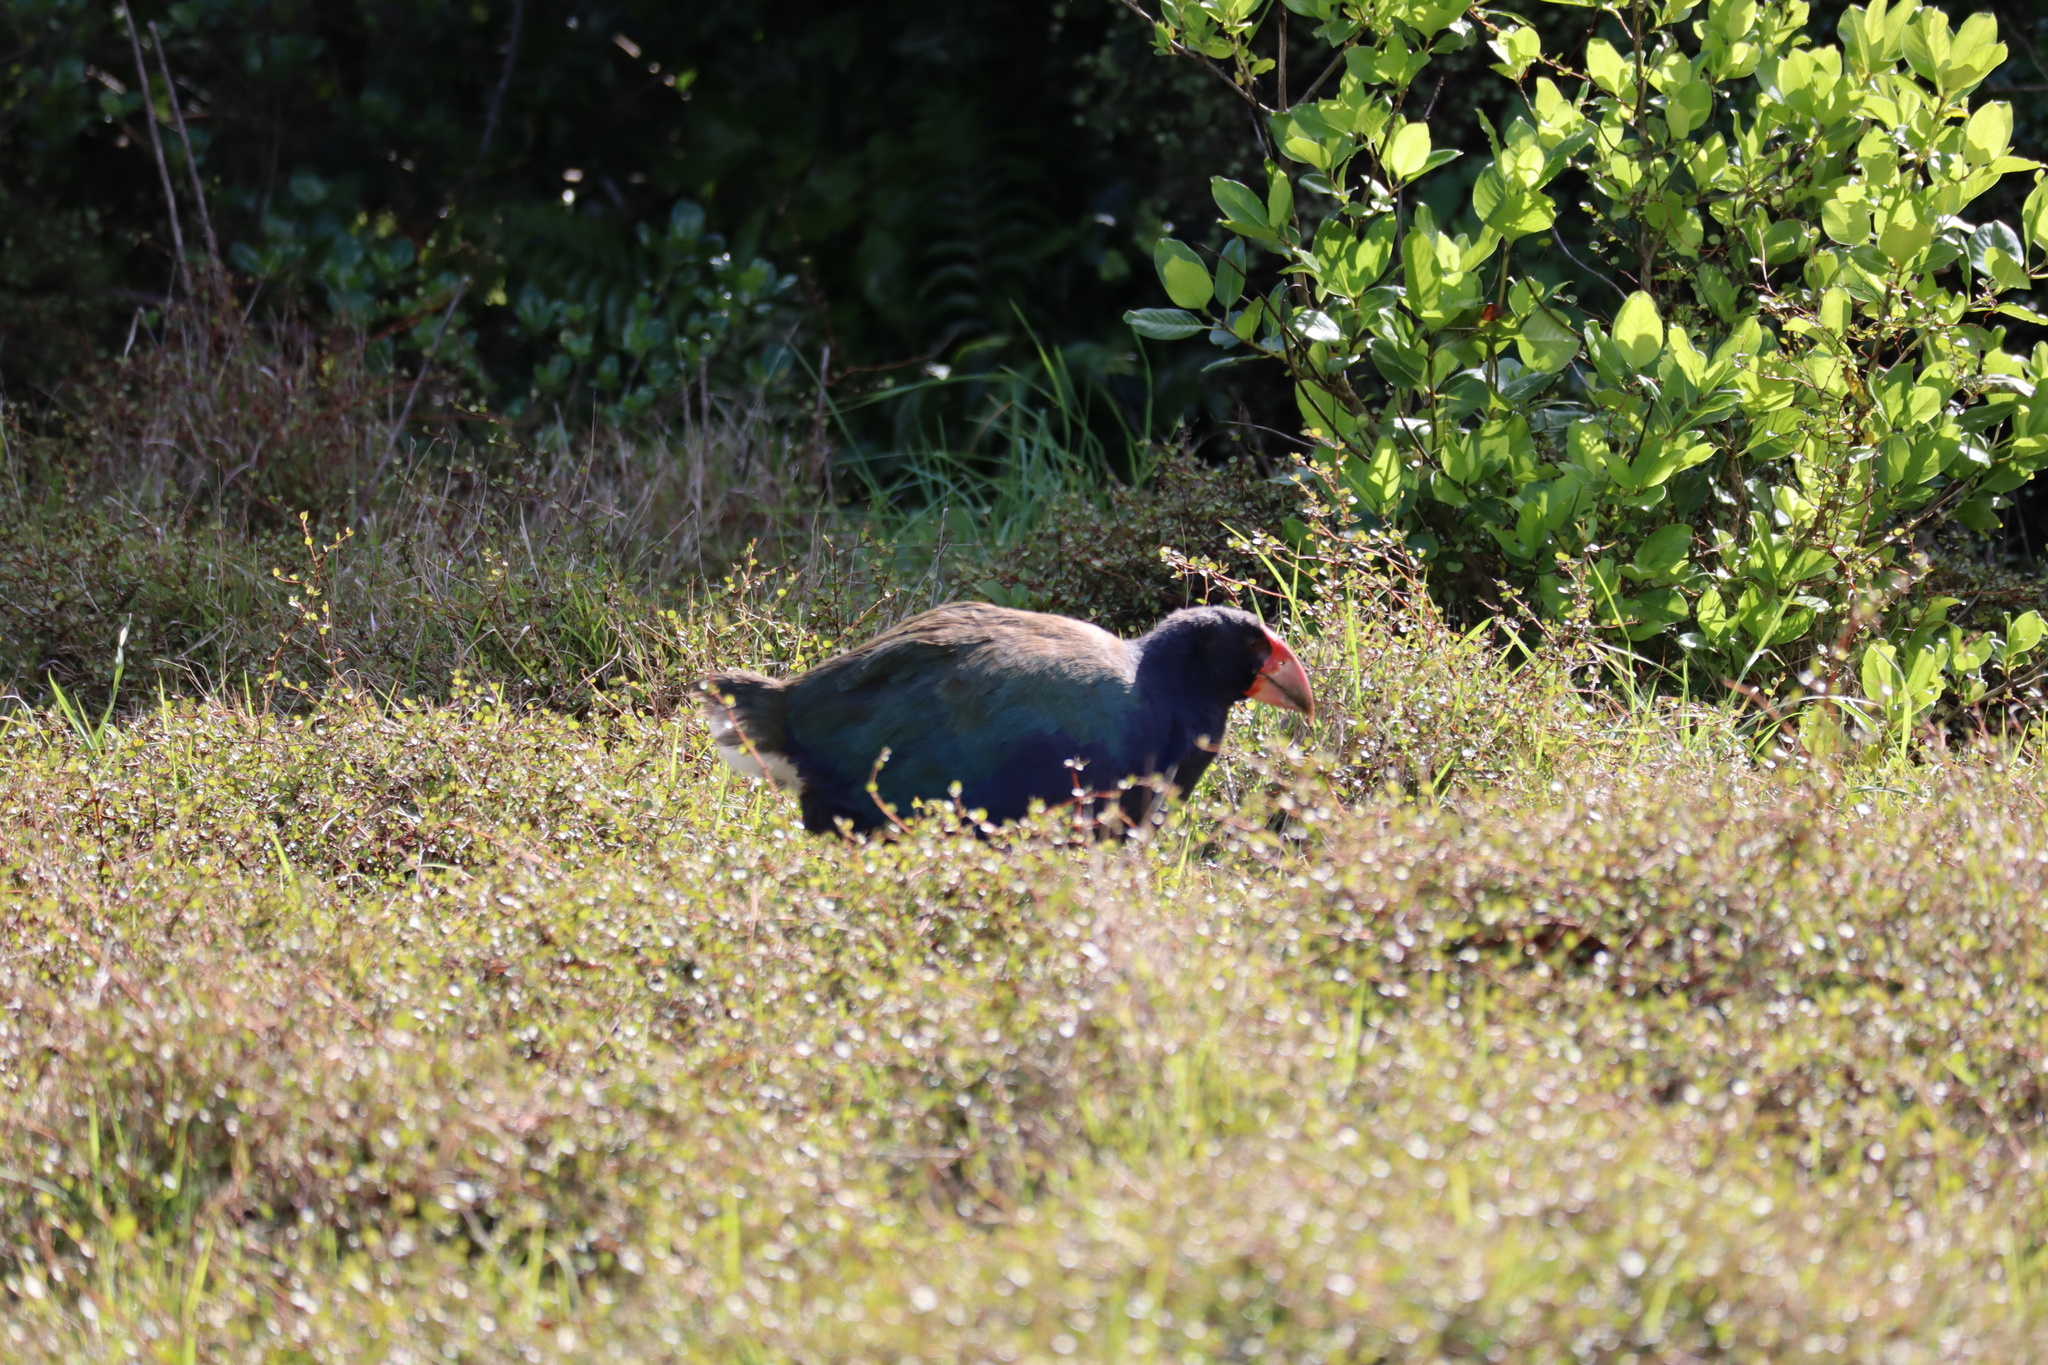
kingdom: Animalia
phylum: Chordata
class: Aves
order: Gruiformes
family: Rallidae
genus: Porphyrio
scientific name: Porphyrio hochstetteri
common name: South island takahe
